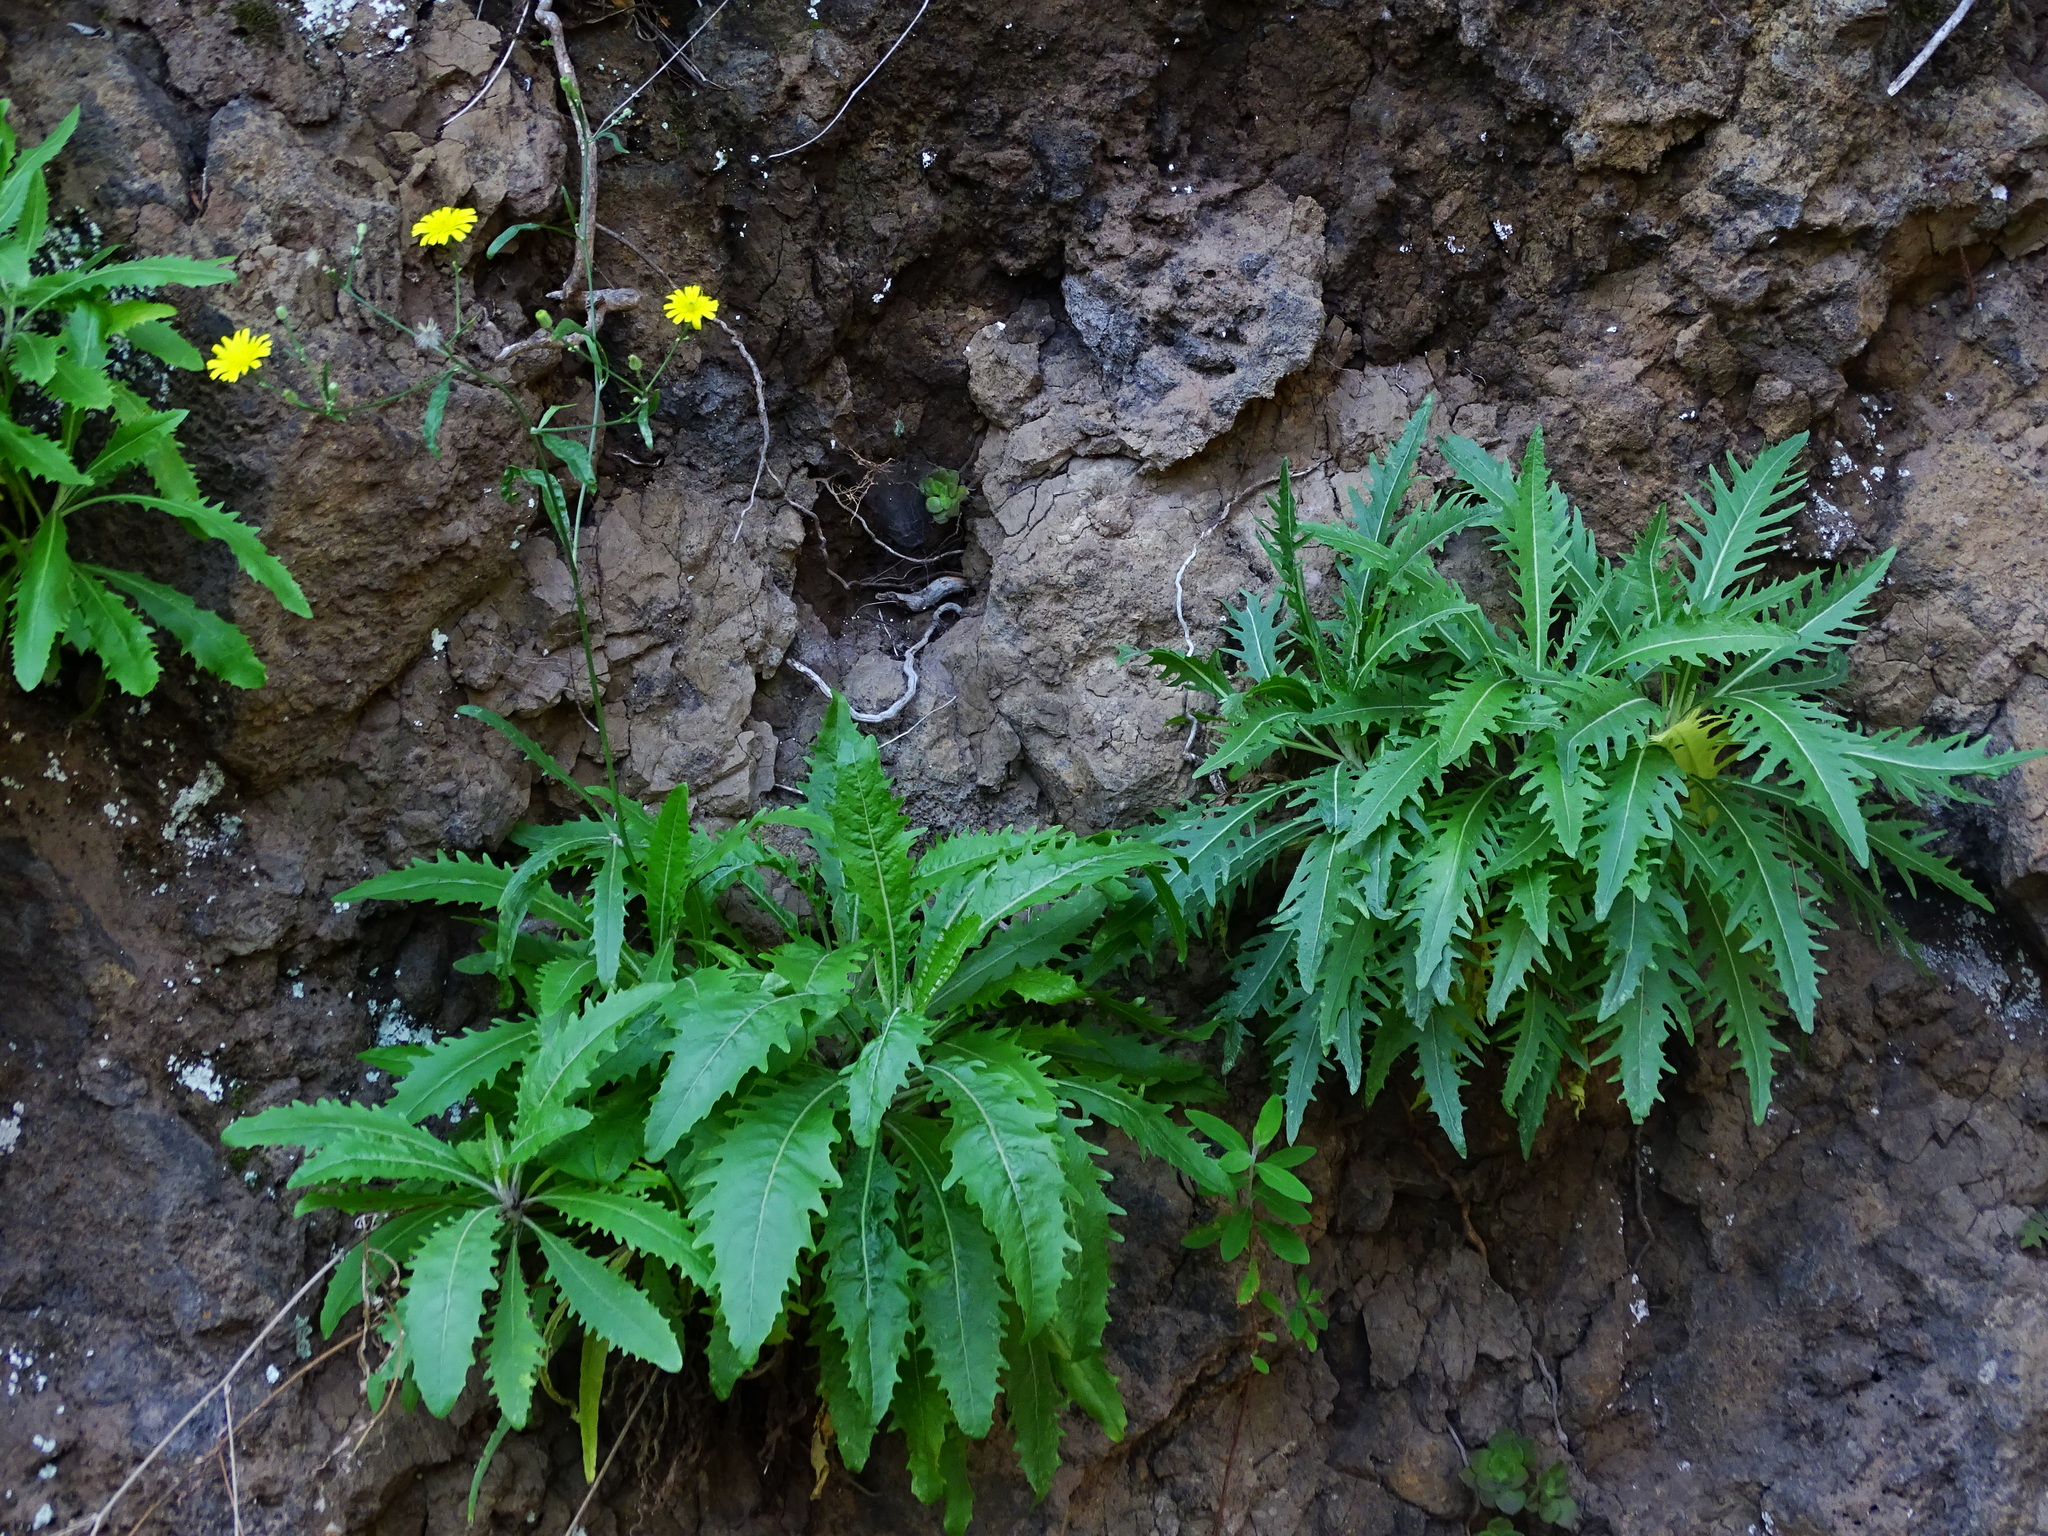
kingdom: Plantae
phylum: Tracheophyta
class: Magnoliopsida
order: Asterales
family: Asteraceae
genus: Tolpis
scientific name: Tolpis laciniata
